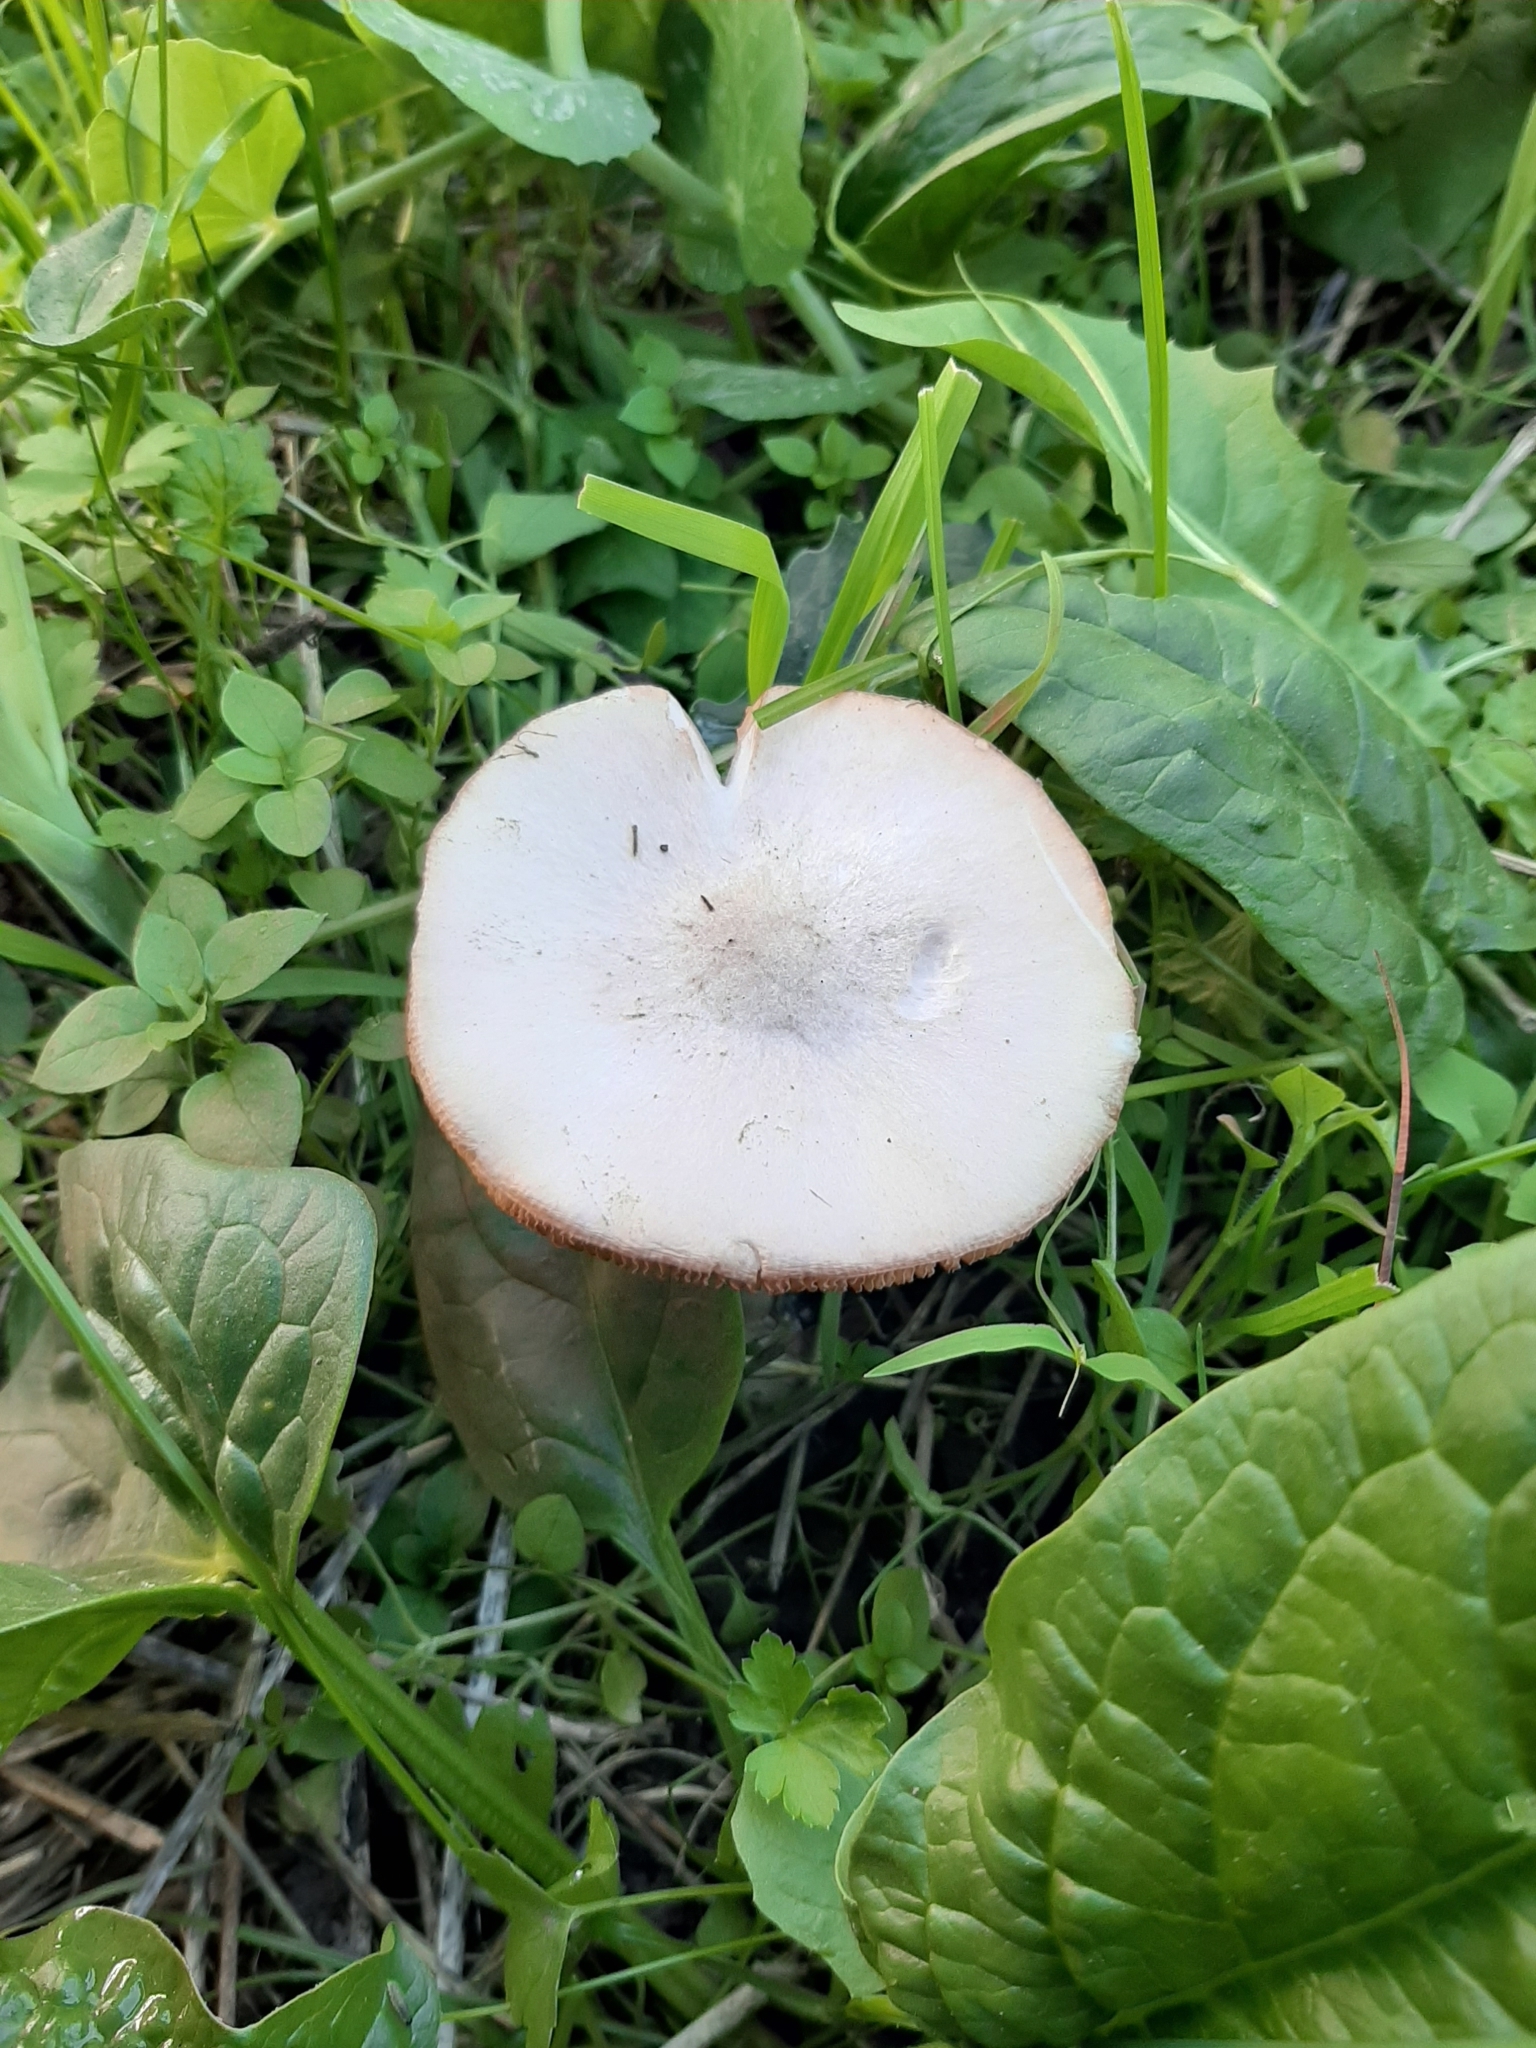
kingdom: Fungi
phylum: Basidiomycota
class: Agaricomycetes
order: Agaricales
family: Pluteaceae
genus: Volvopluteus
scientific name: Volvopluteus gloiocephalus
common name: Stubble rosegill
